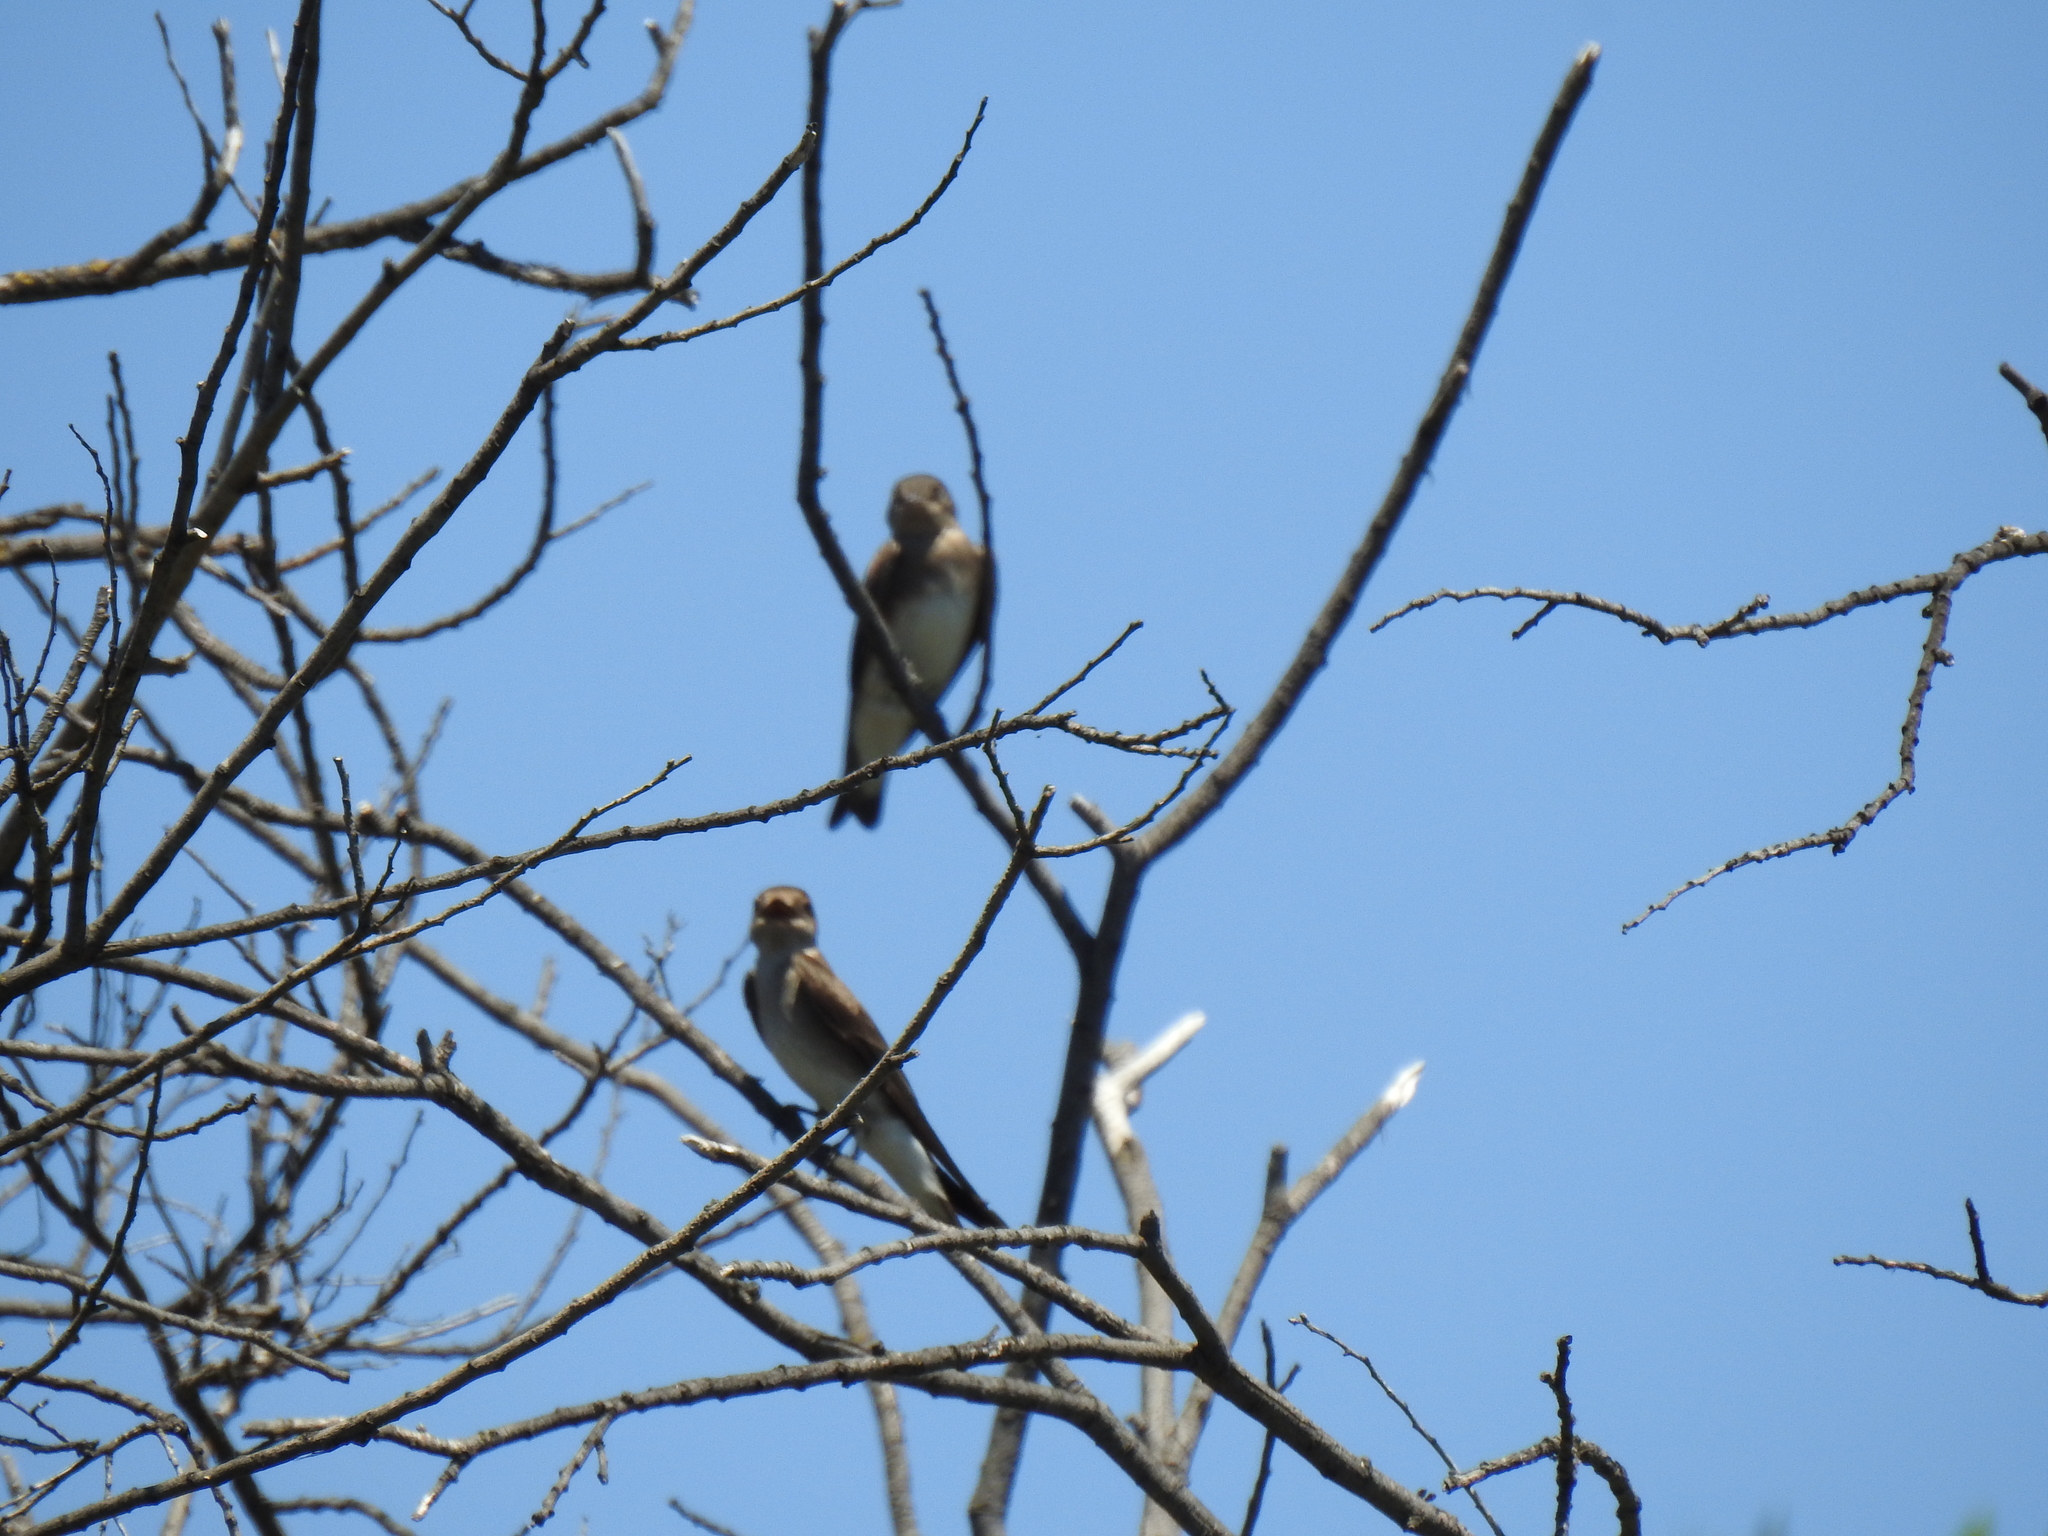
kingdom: Animalia
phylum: Chordata
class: Aves
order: Passeriformes
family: Hirundinidae
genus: Stelgidopteryx
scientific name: Stelgidopteryx serripennis
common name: Northern rough-winged swallow
